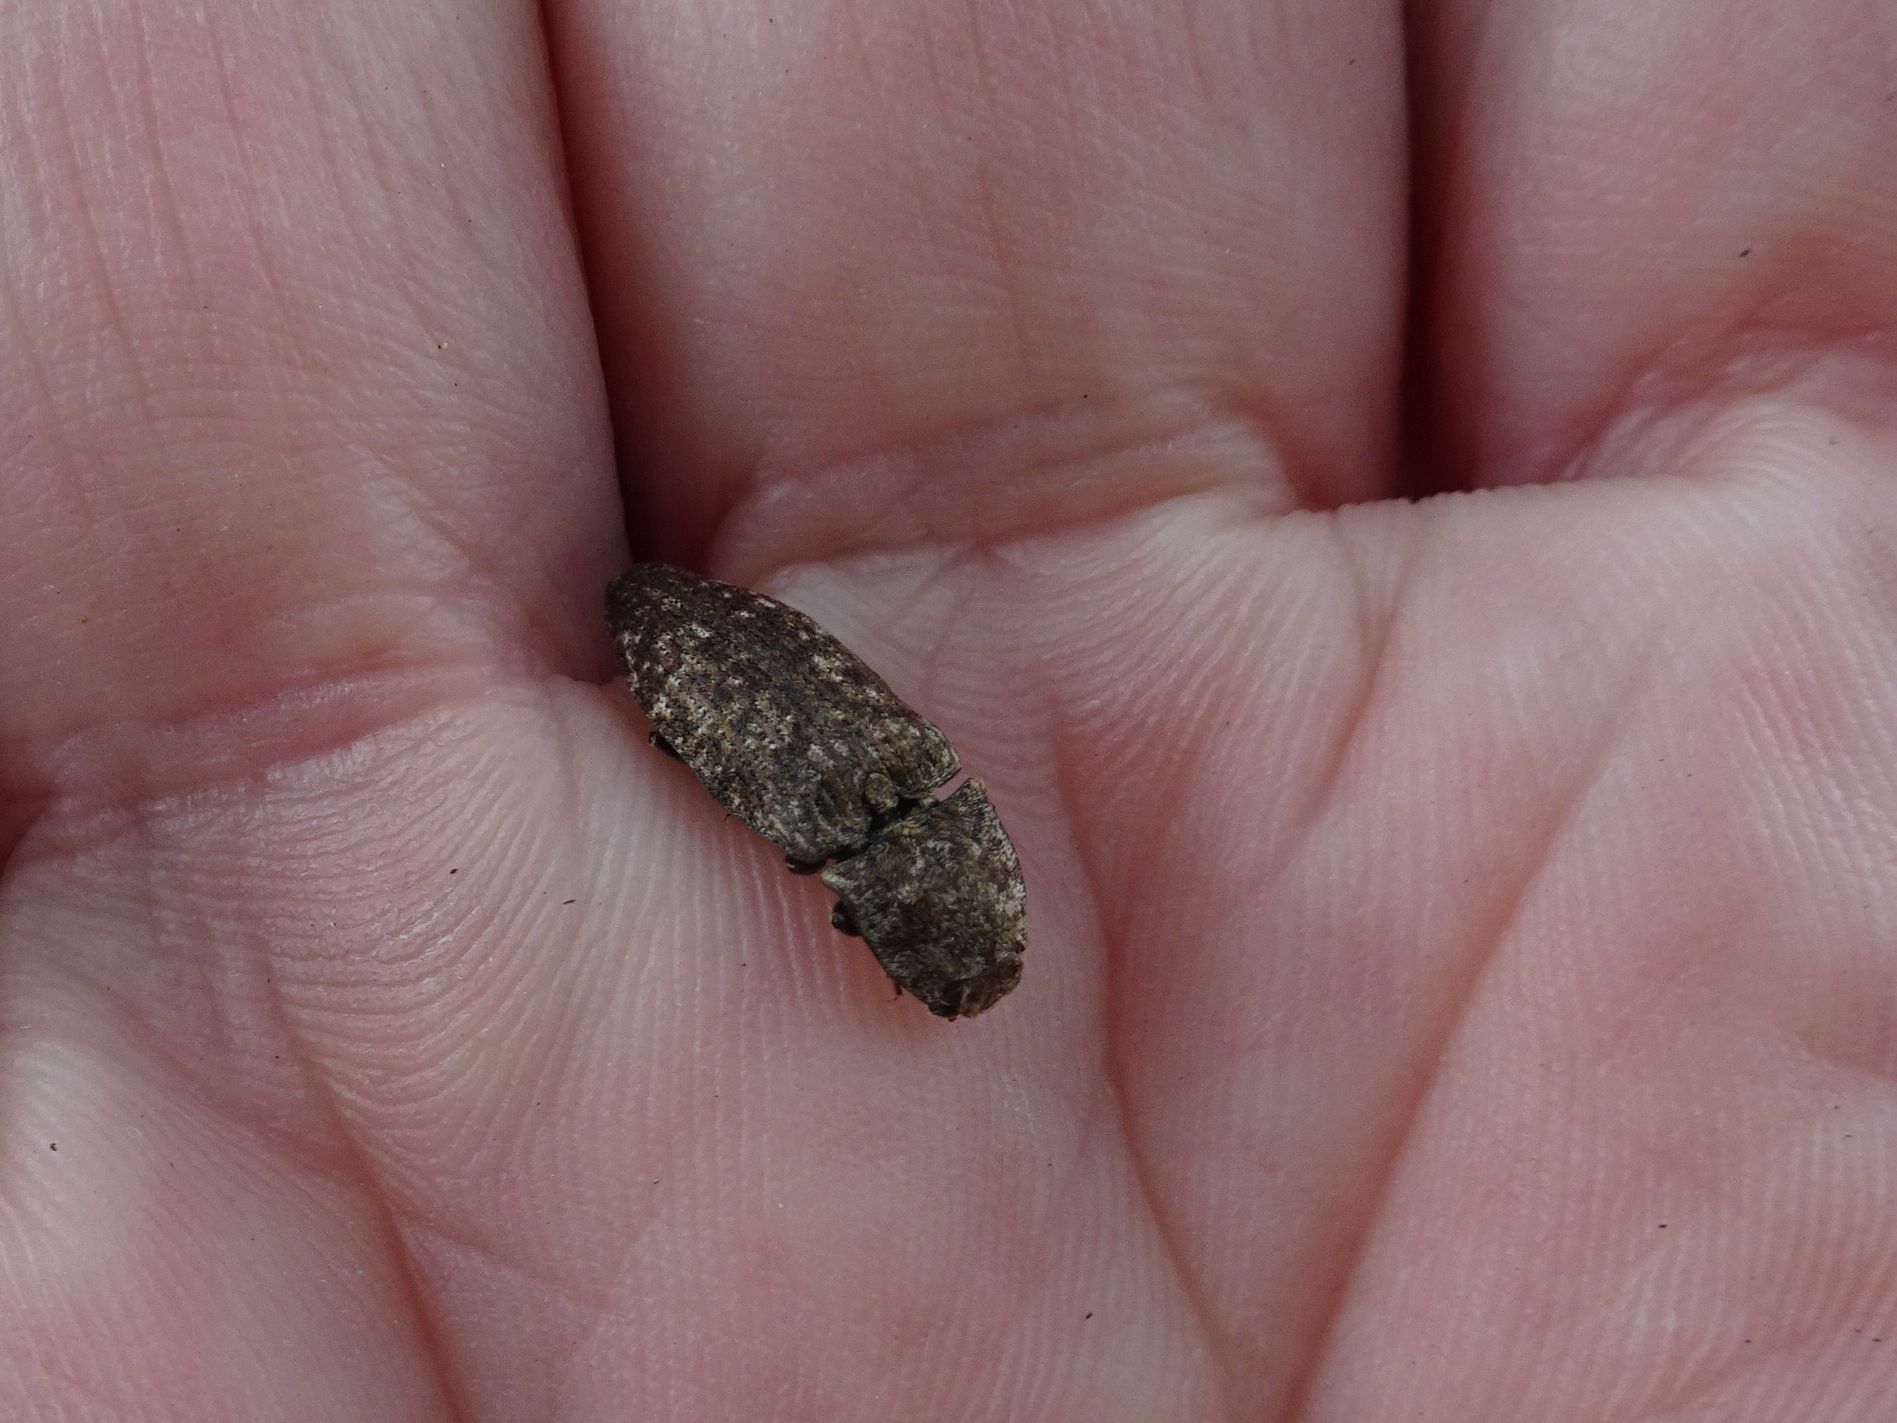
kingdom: Animalia
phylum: Arthropoda
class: Insecta
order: Coleoptera
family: Elateridae
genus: Agrypnus
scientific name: Agrypnus murinus
